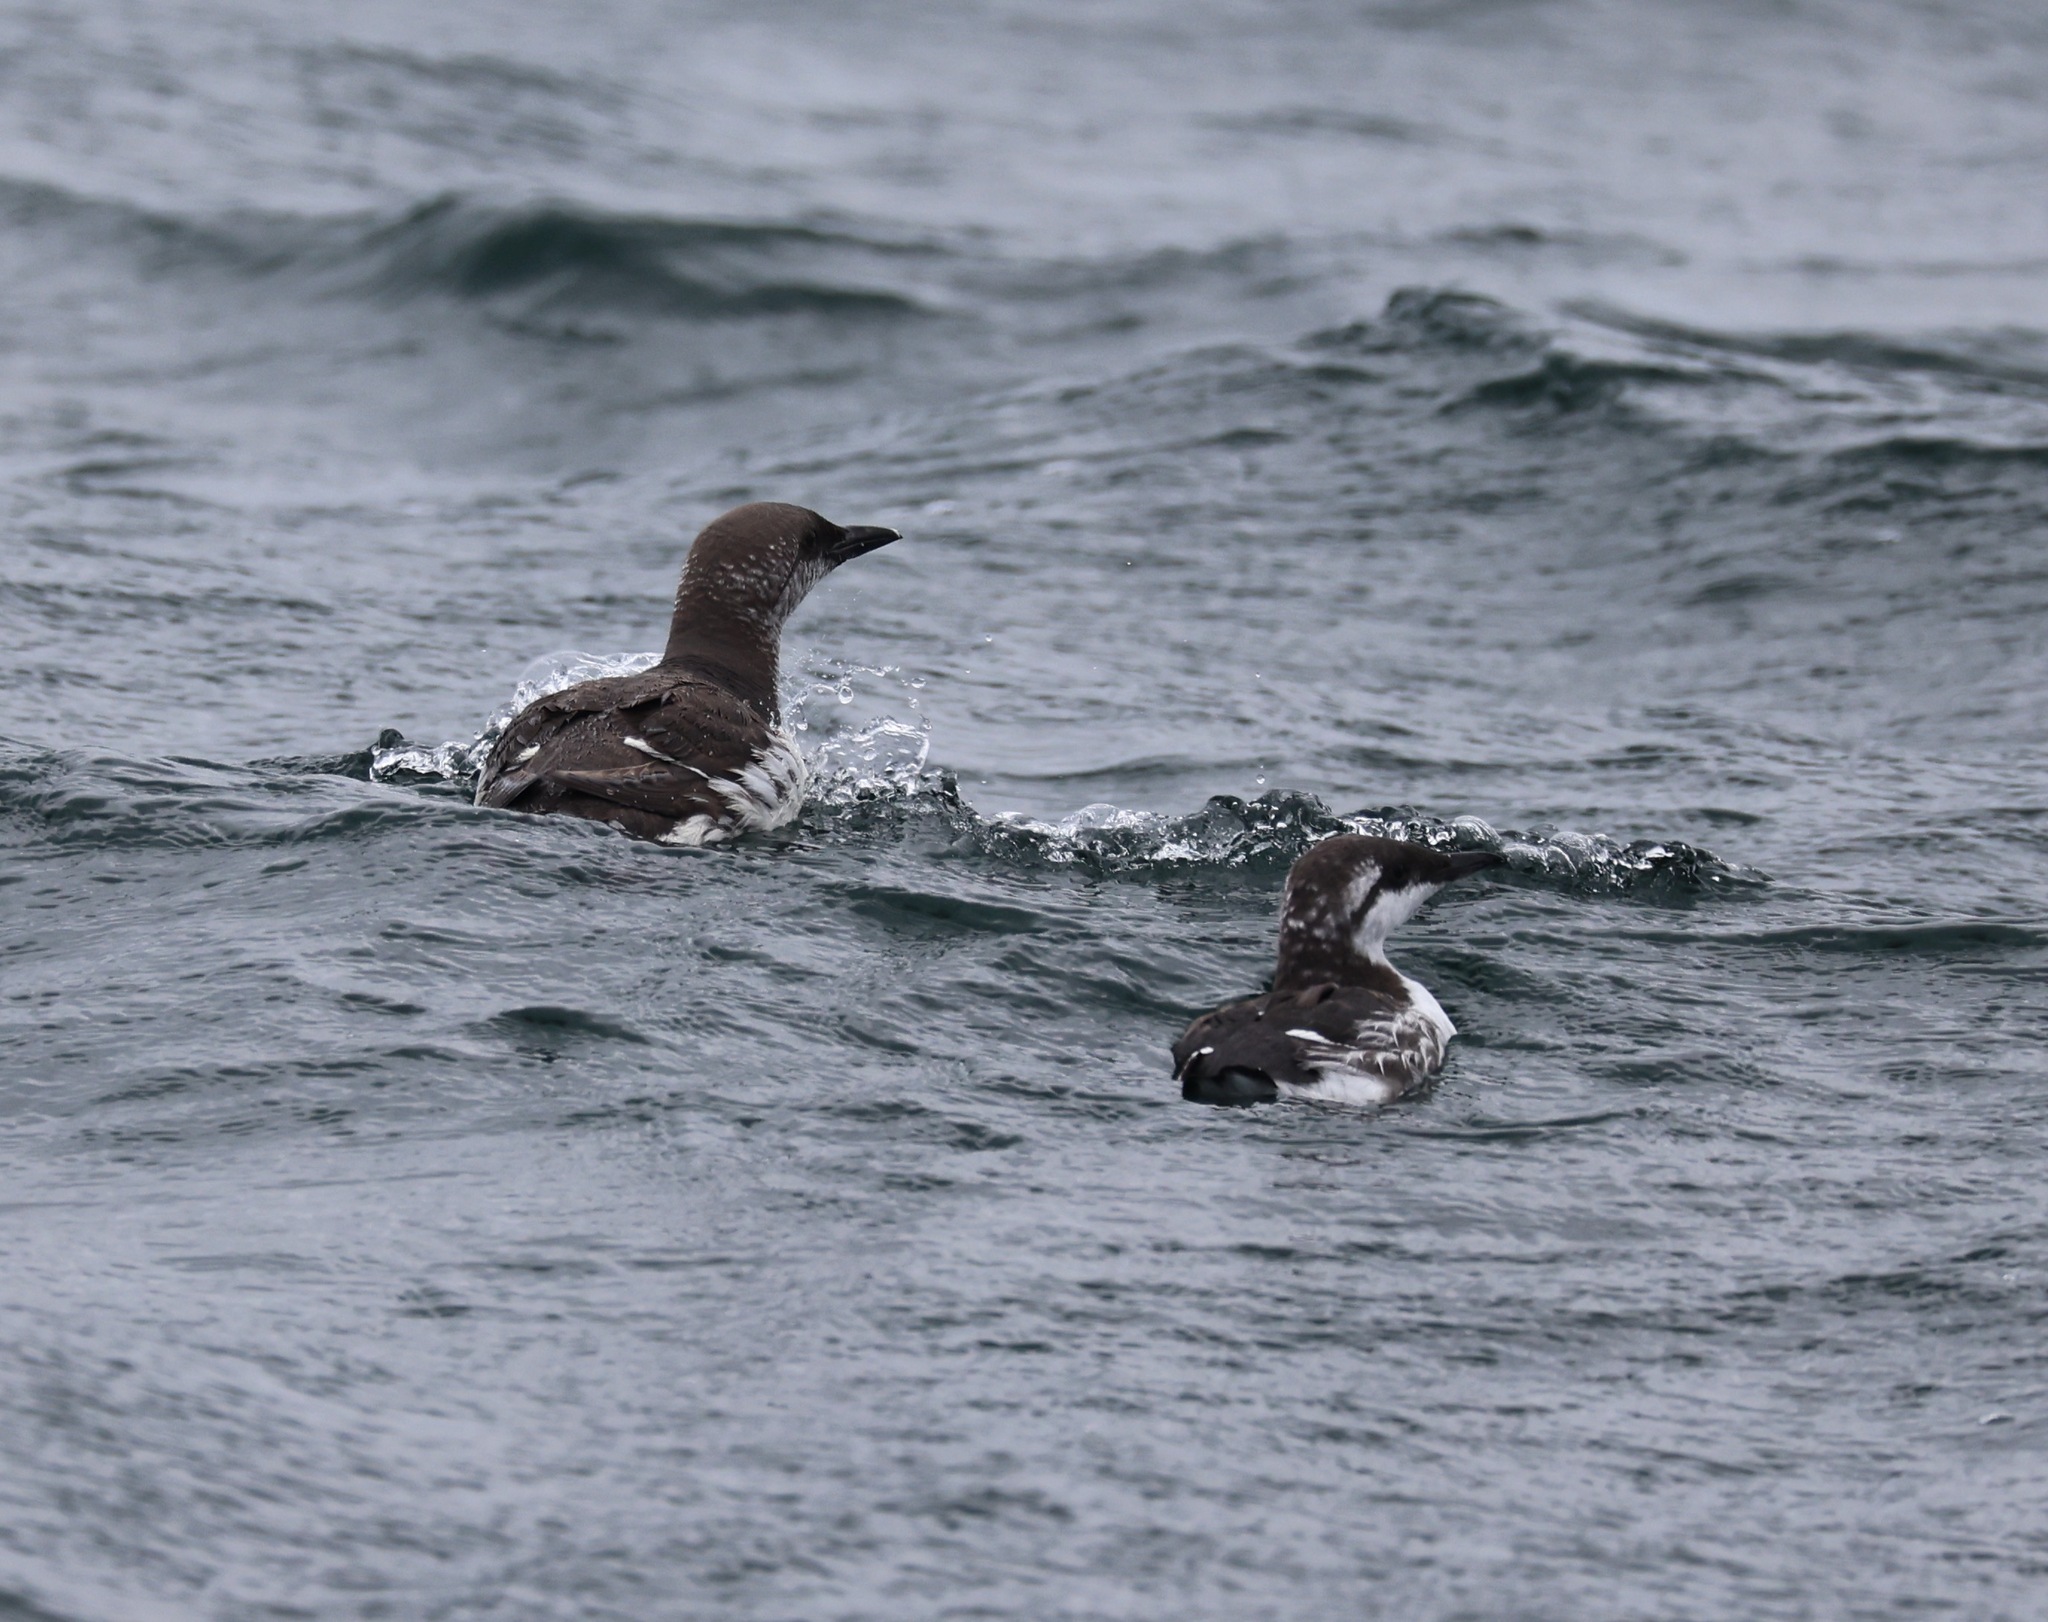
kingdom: Animalia
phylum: Chordata
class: Aves
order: Charadriiformes
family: Alcidae
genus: Uria
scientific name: Uria aalge
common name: Common murre
